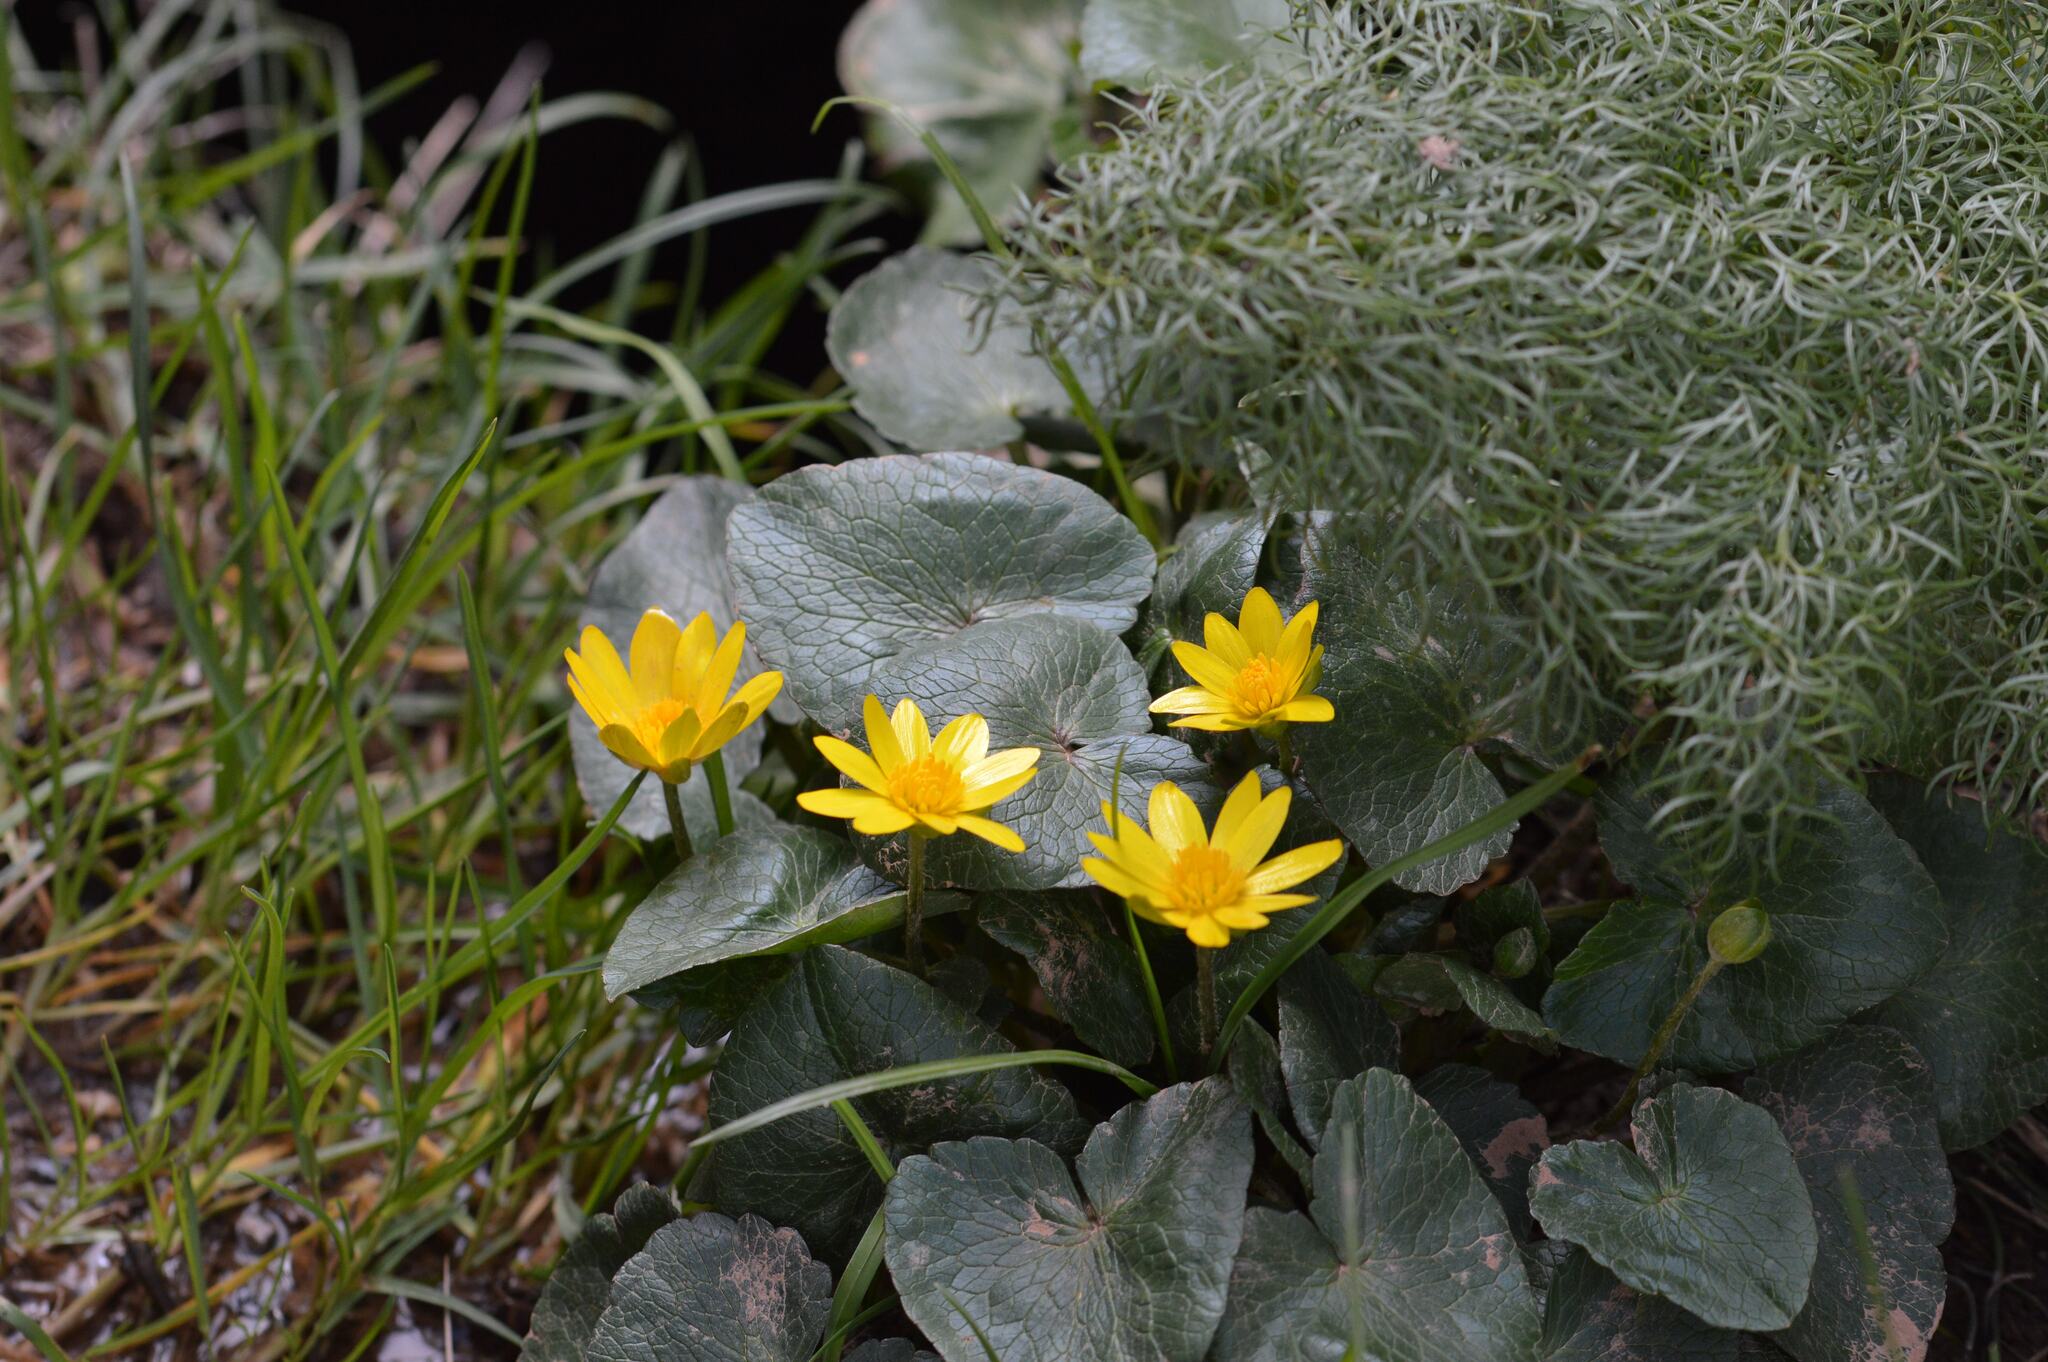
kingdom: Plantae
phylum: Tracheophyta
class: Magnoliopsida
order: Ranunculales
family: Ranunculaceae
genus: Ficaria
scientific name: Ficaria verna
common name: Lesser celandine
